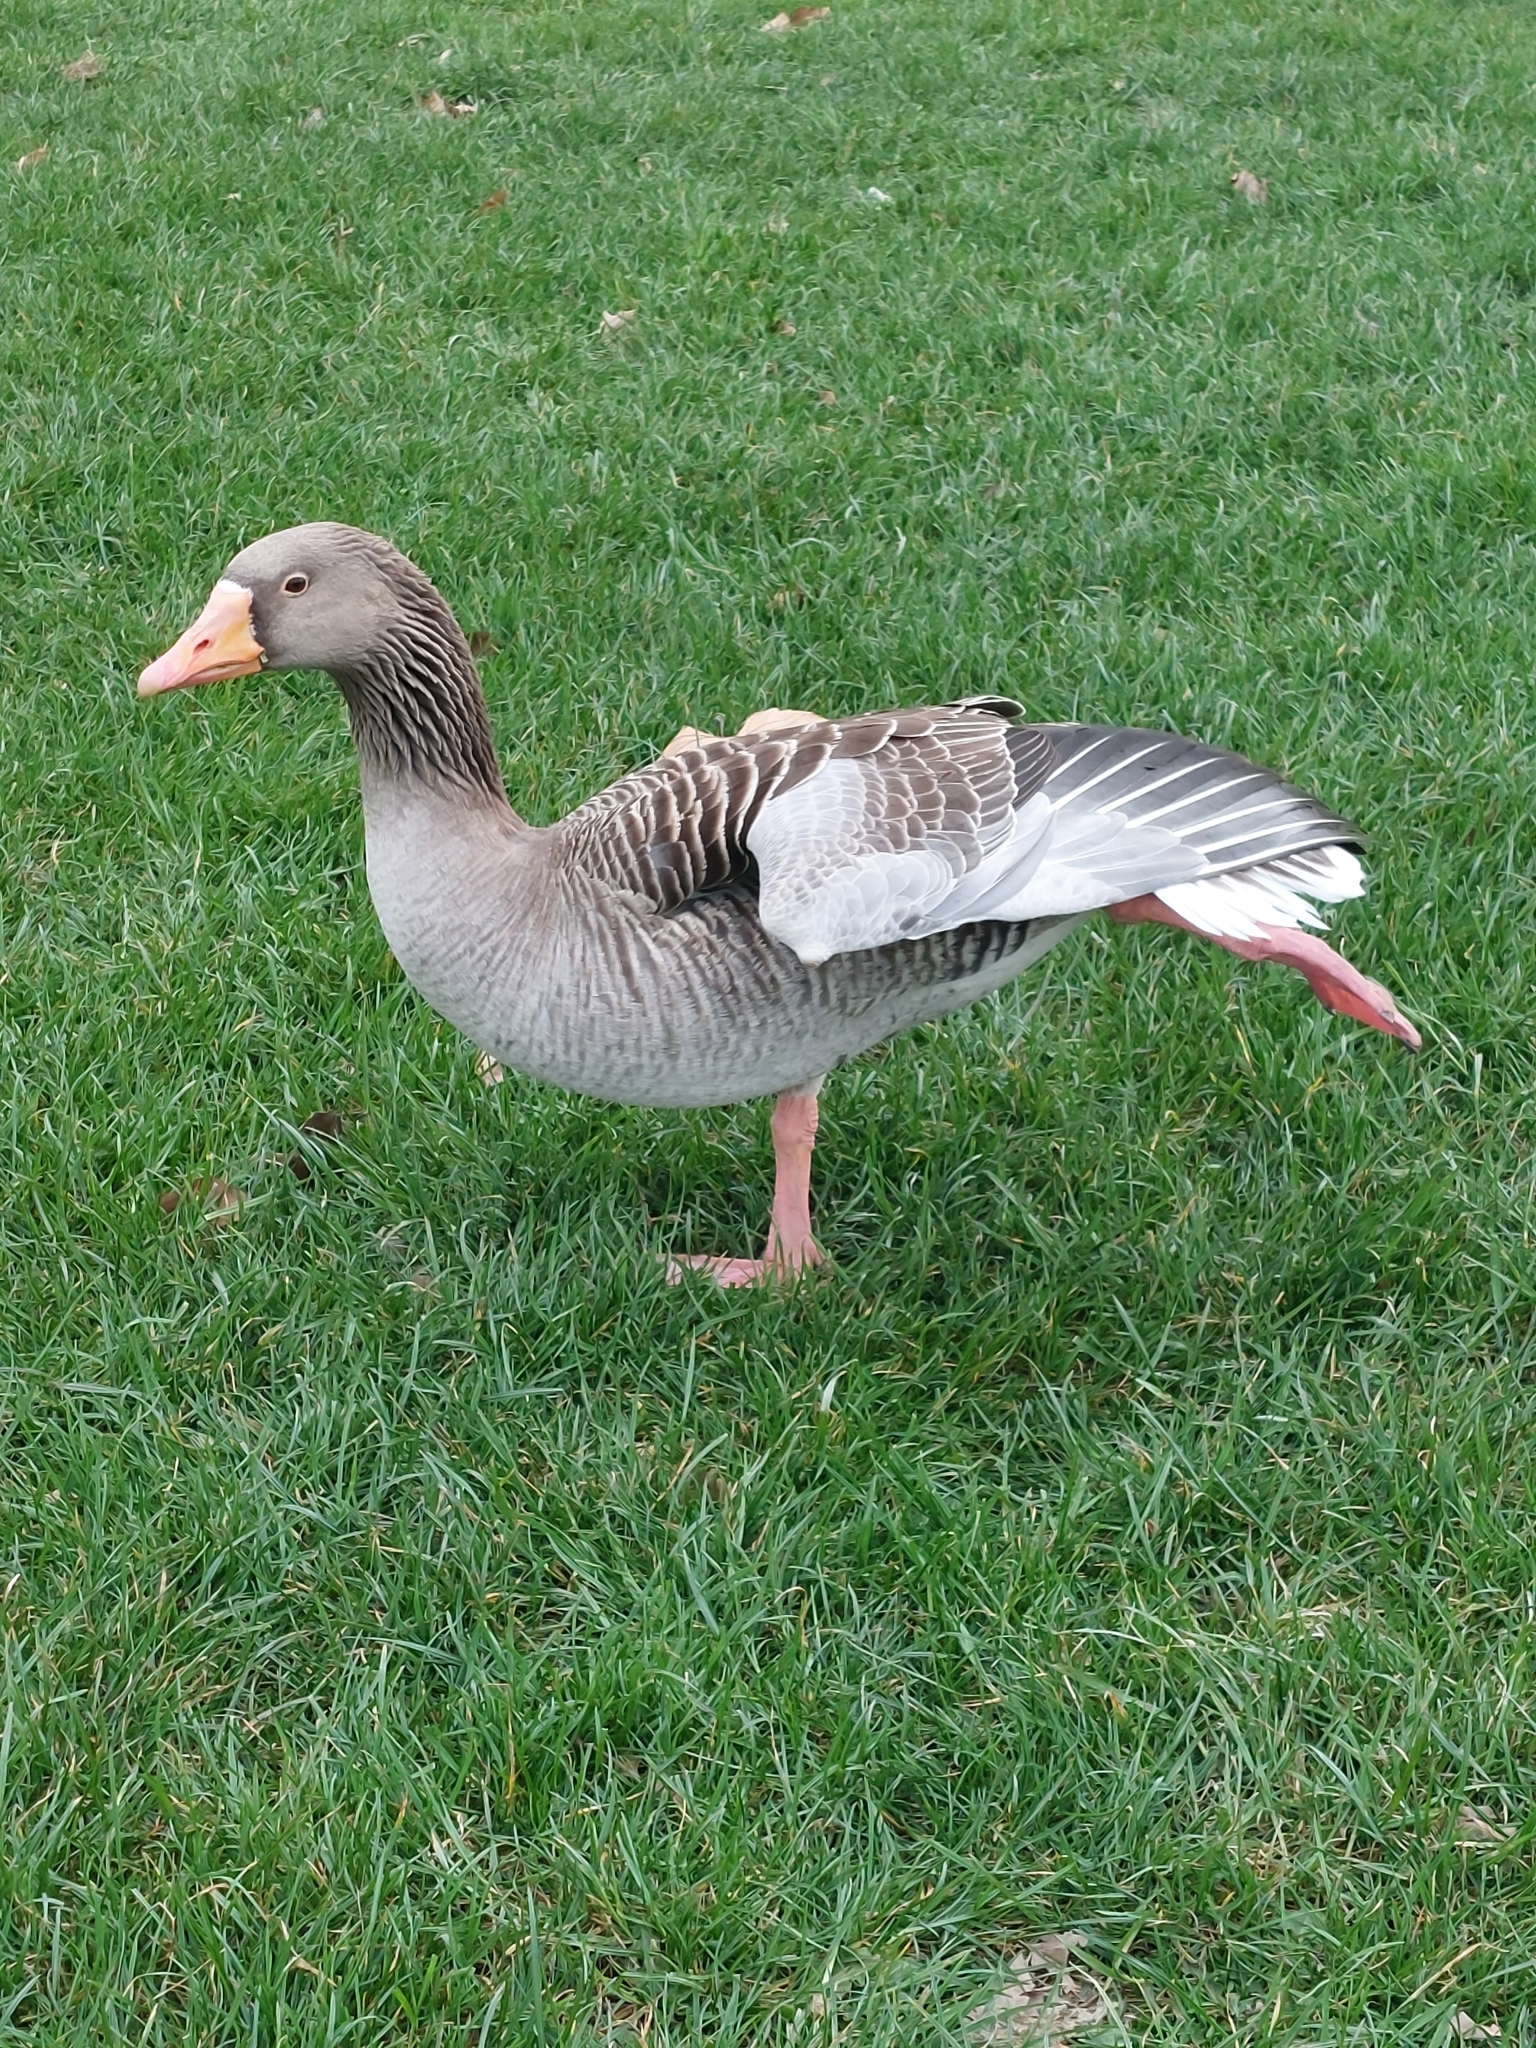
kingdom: Animalia
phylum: Chordata
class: Aves
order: Anseriformes
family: Anatidae
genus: Anser
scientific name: Anser anser
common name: Greylag goose
